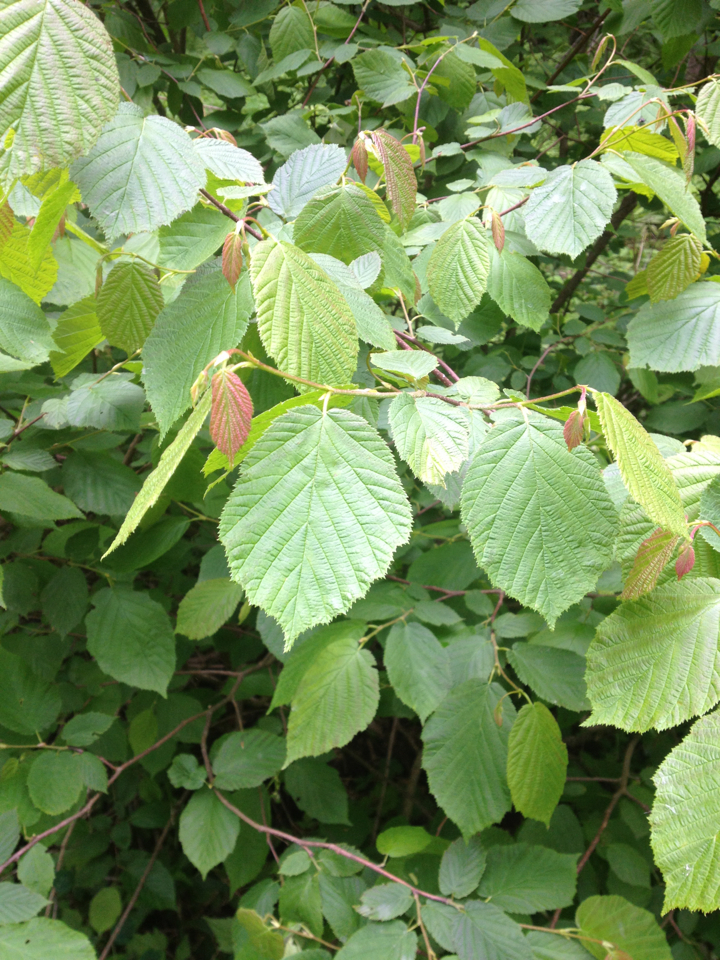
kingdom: Plantae
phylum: Tracheophyta
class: Magnoliopsida
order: Fagales
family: Betulaceae
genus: Corylus
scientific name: Corylus cornuta
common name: Beaked hazel
